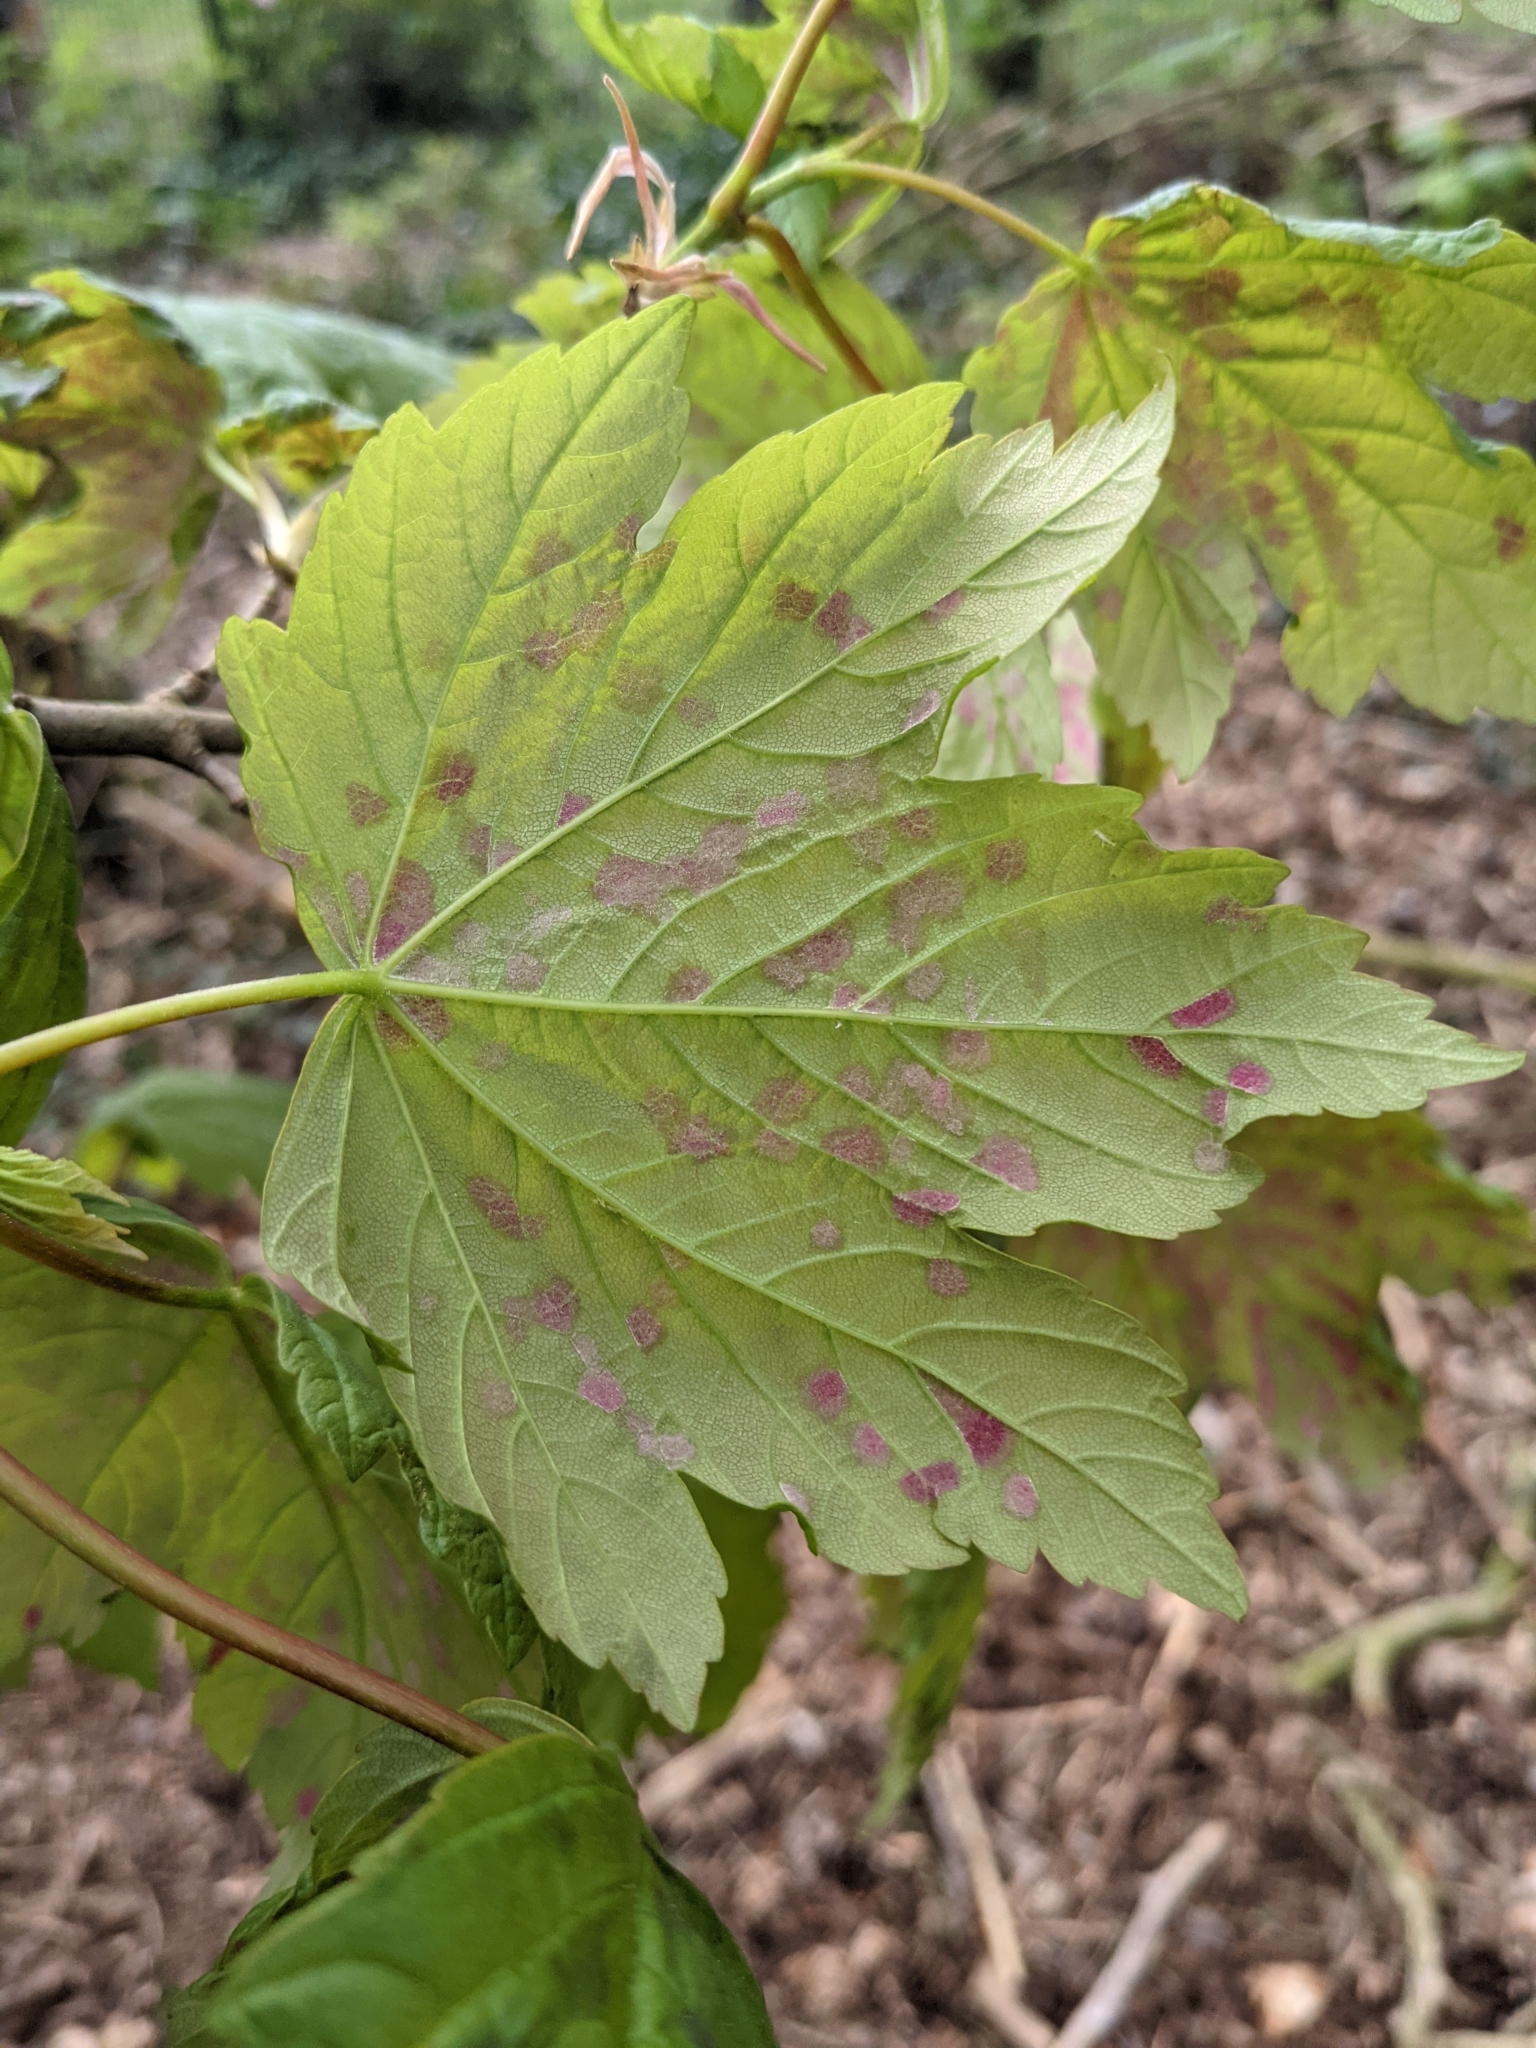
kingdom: Plantae
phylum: Tracheophyta
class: Magnoliopsida
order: Sapindales
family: Sapindaceae
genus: Acer
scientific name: Acer pseudoplatanus
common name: Sycamore
